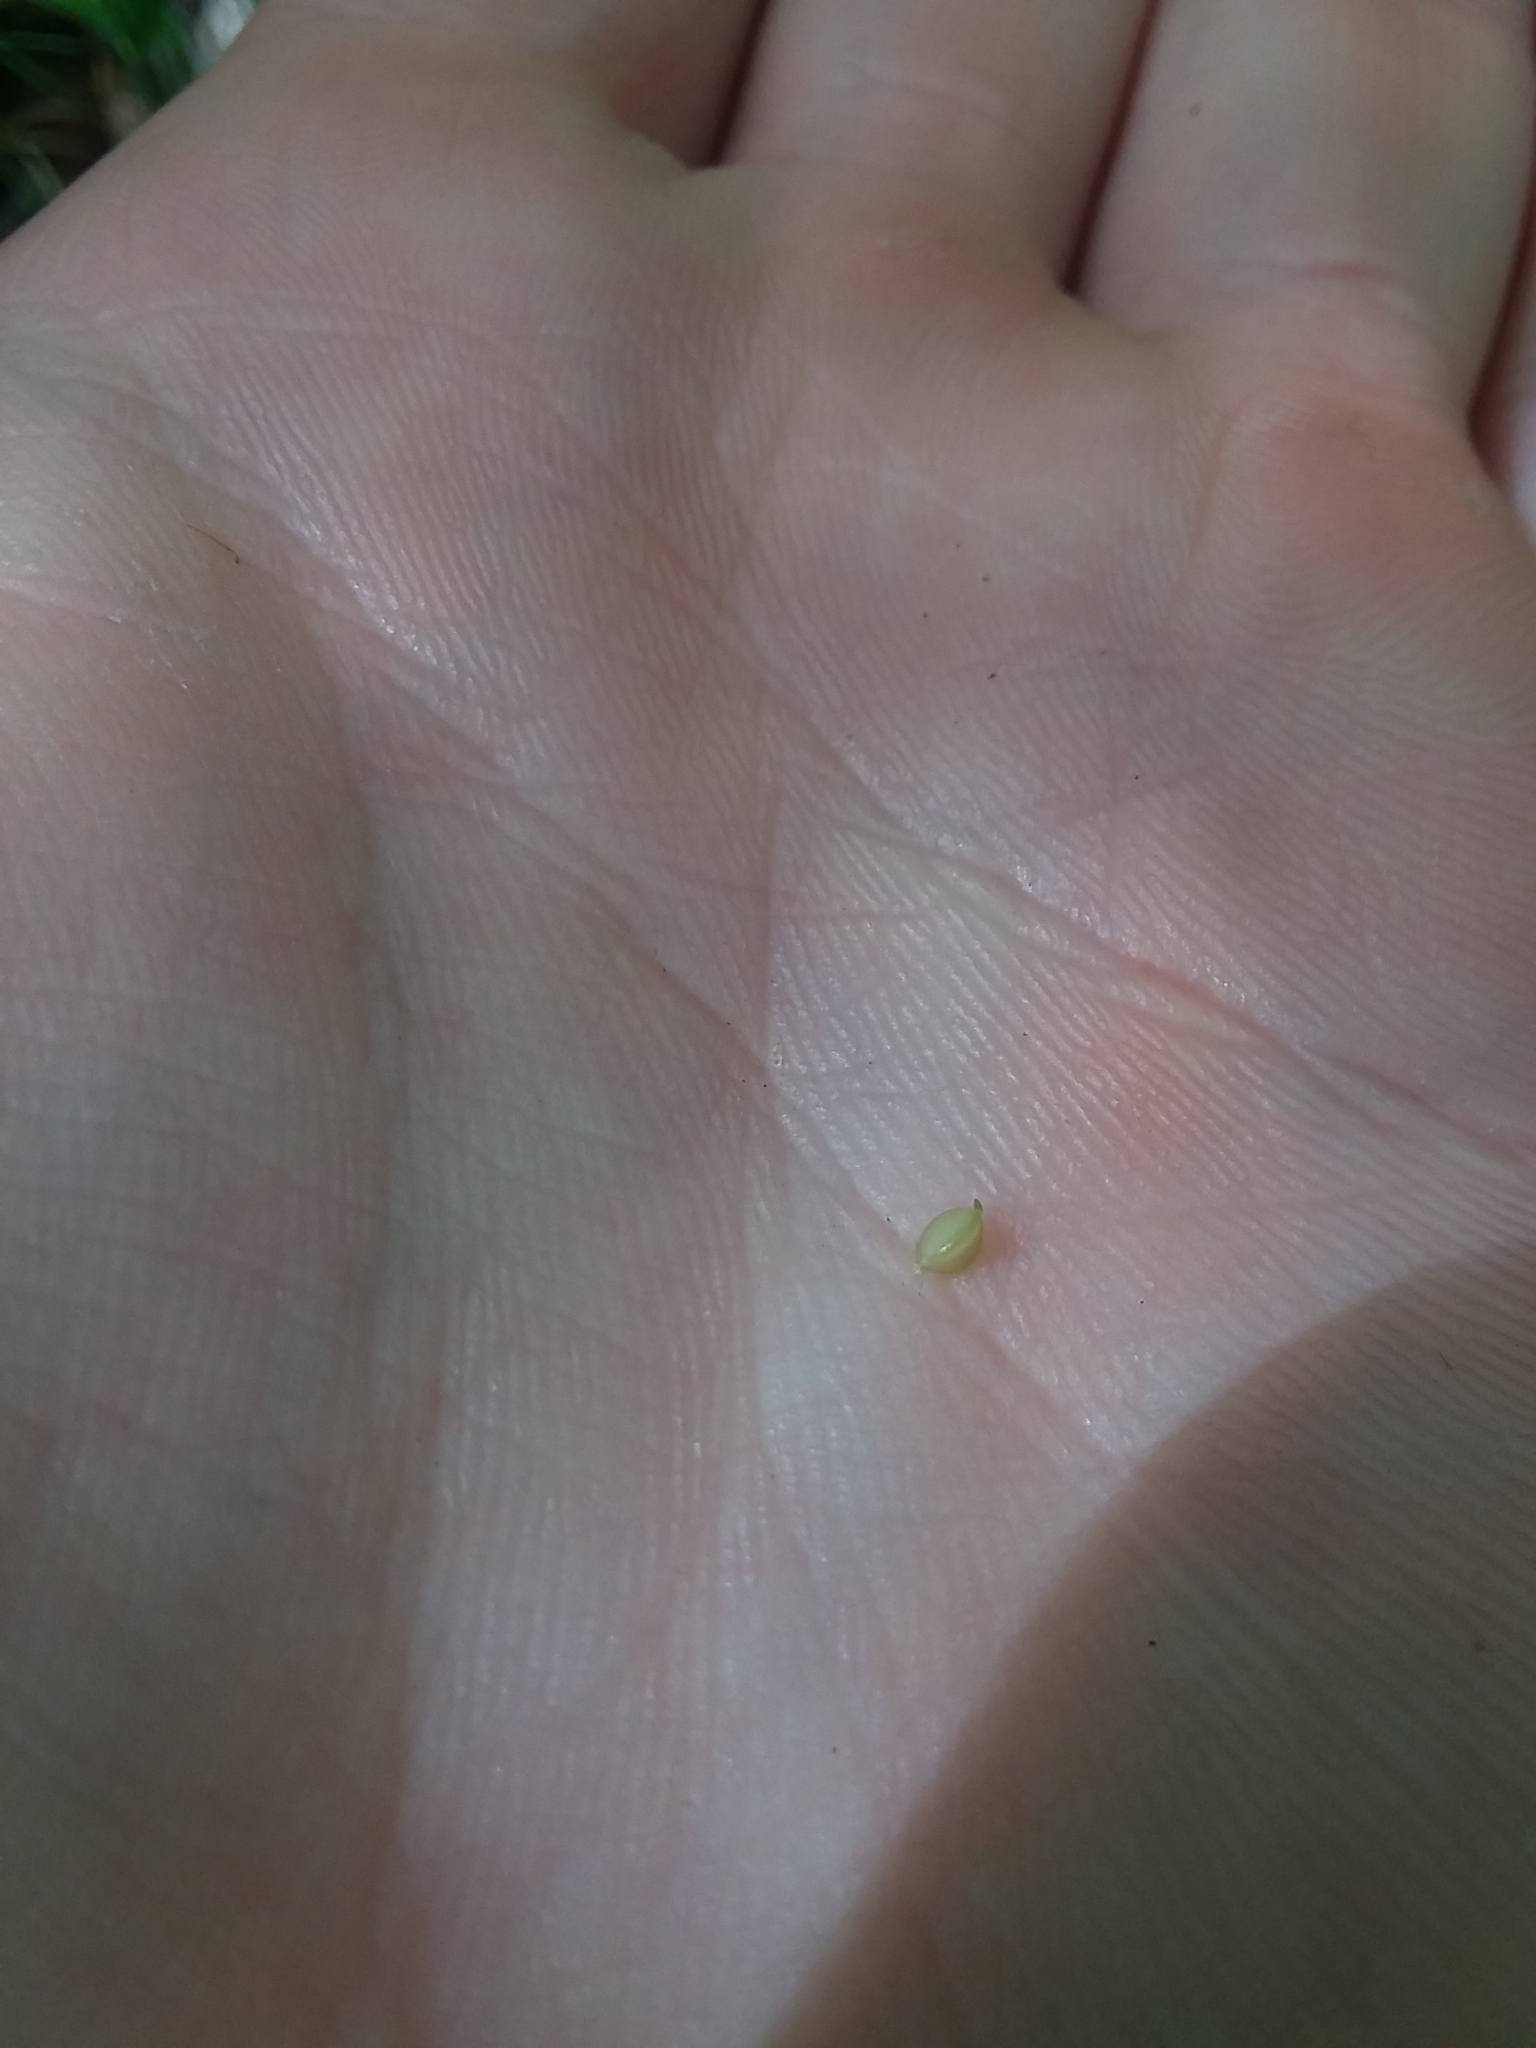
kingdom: Plantae
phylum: Tracheophyta
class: Liliopsida
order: Poales
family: Cyperaceae
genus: Carex
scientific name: Carex digitalis
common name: Slender wood sedge
